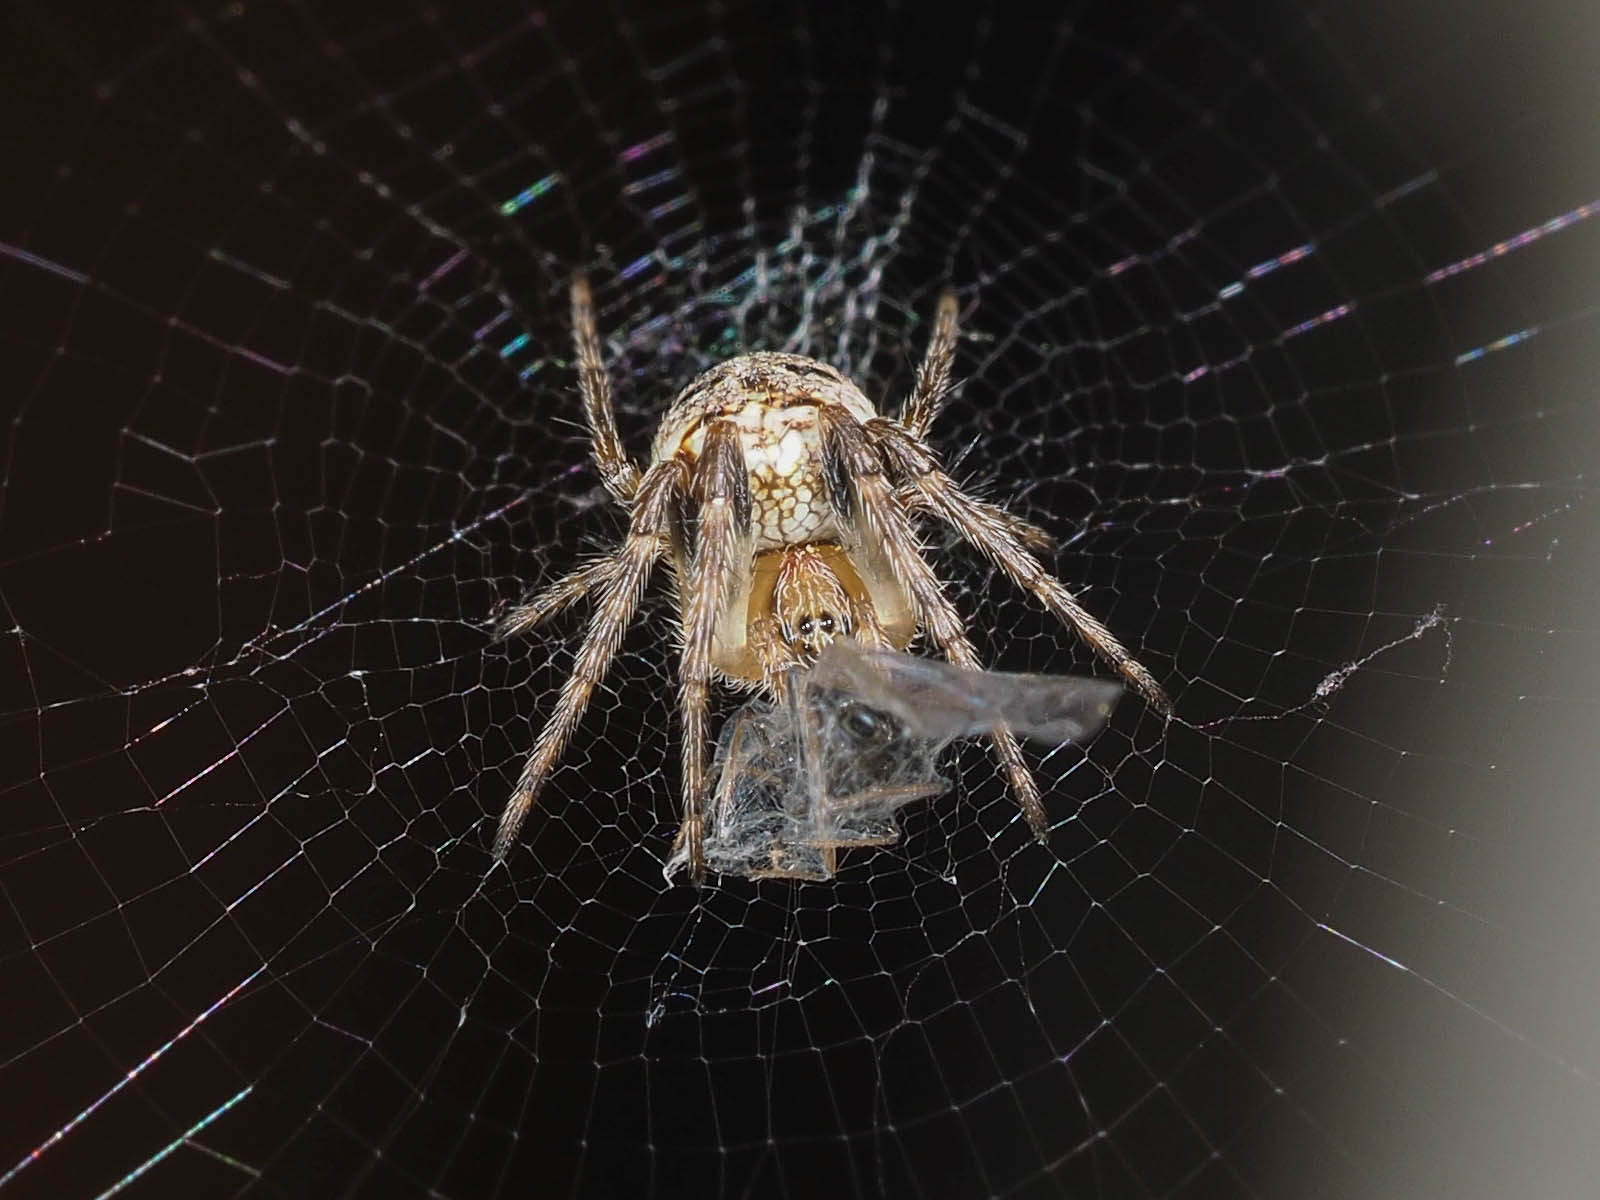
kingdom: Animalia
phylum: Arthropoda
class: Arachnida
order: Araneae
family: Araneidae
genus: Zilla
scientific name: Zilla diodia
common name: Zilla diodia
